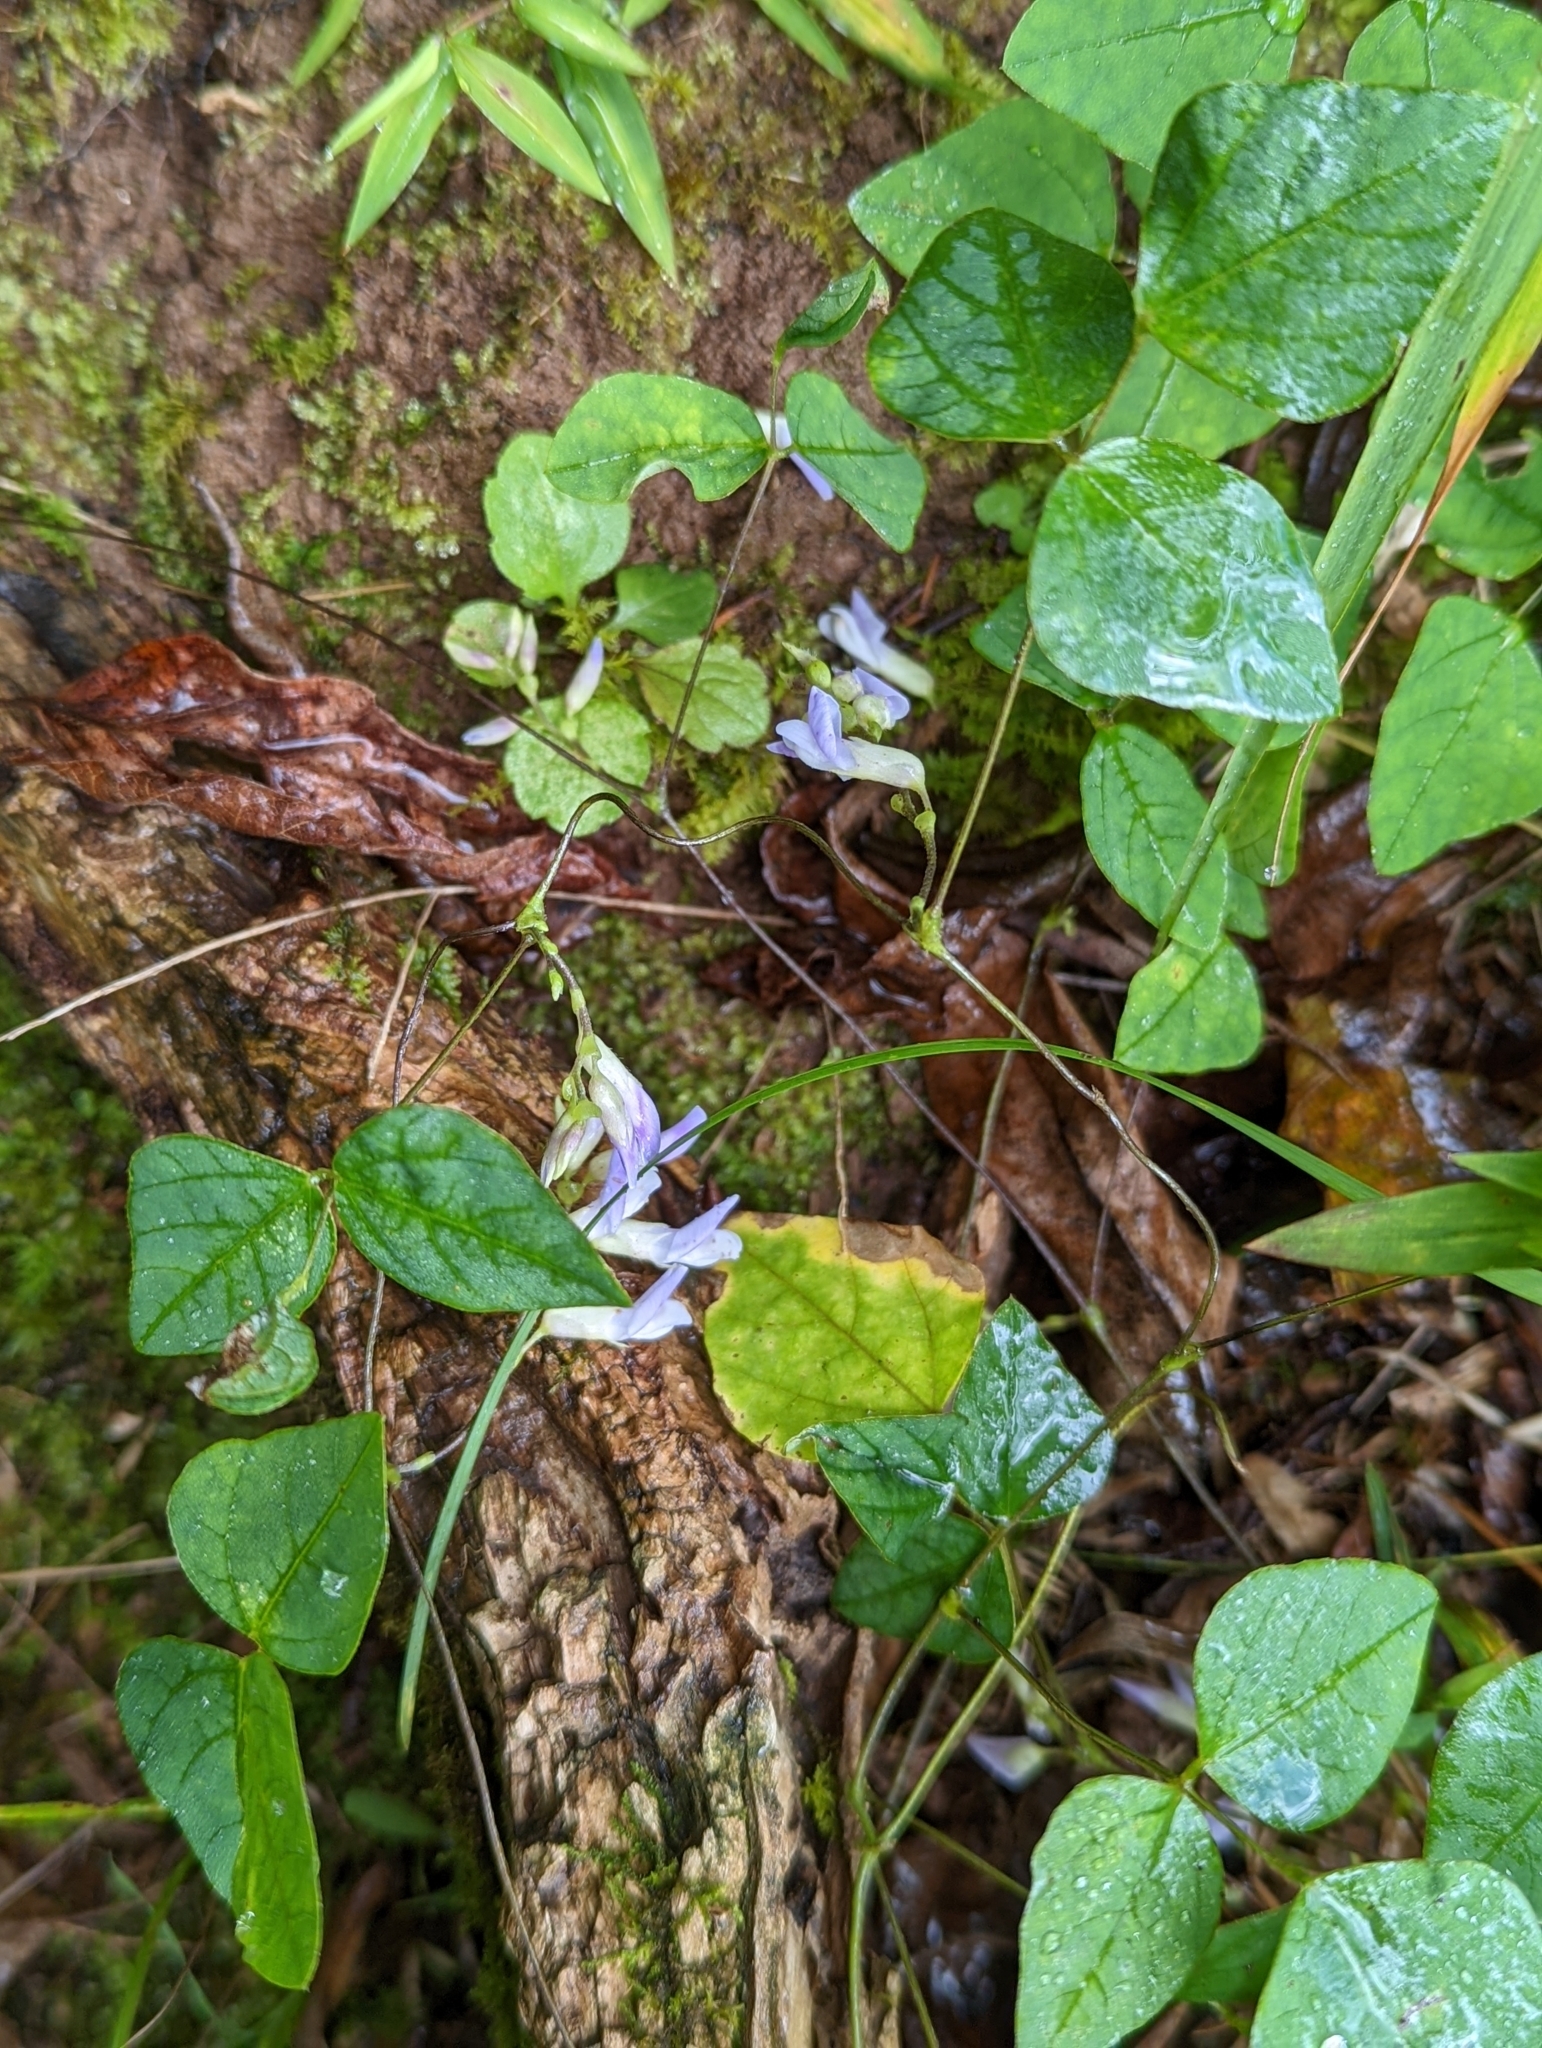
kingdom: Plantae
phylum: Tracheophyta
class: Magnoliopsida
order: Fabales
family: Fabaceae
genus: Amphicarpaea
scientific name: Amphicarpaea bracteata
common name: American hog peanut
